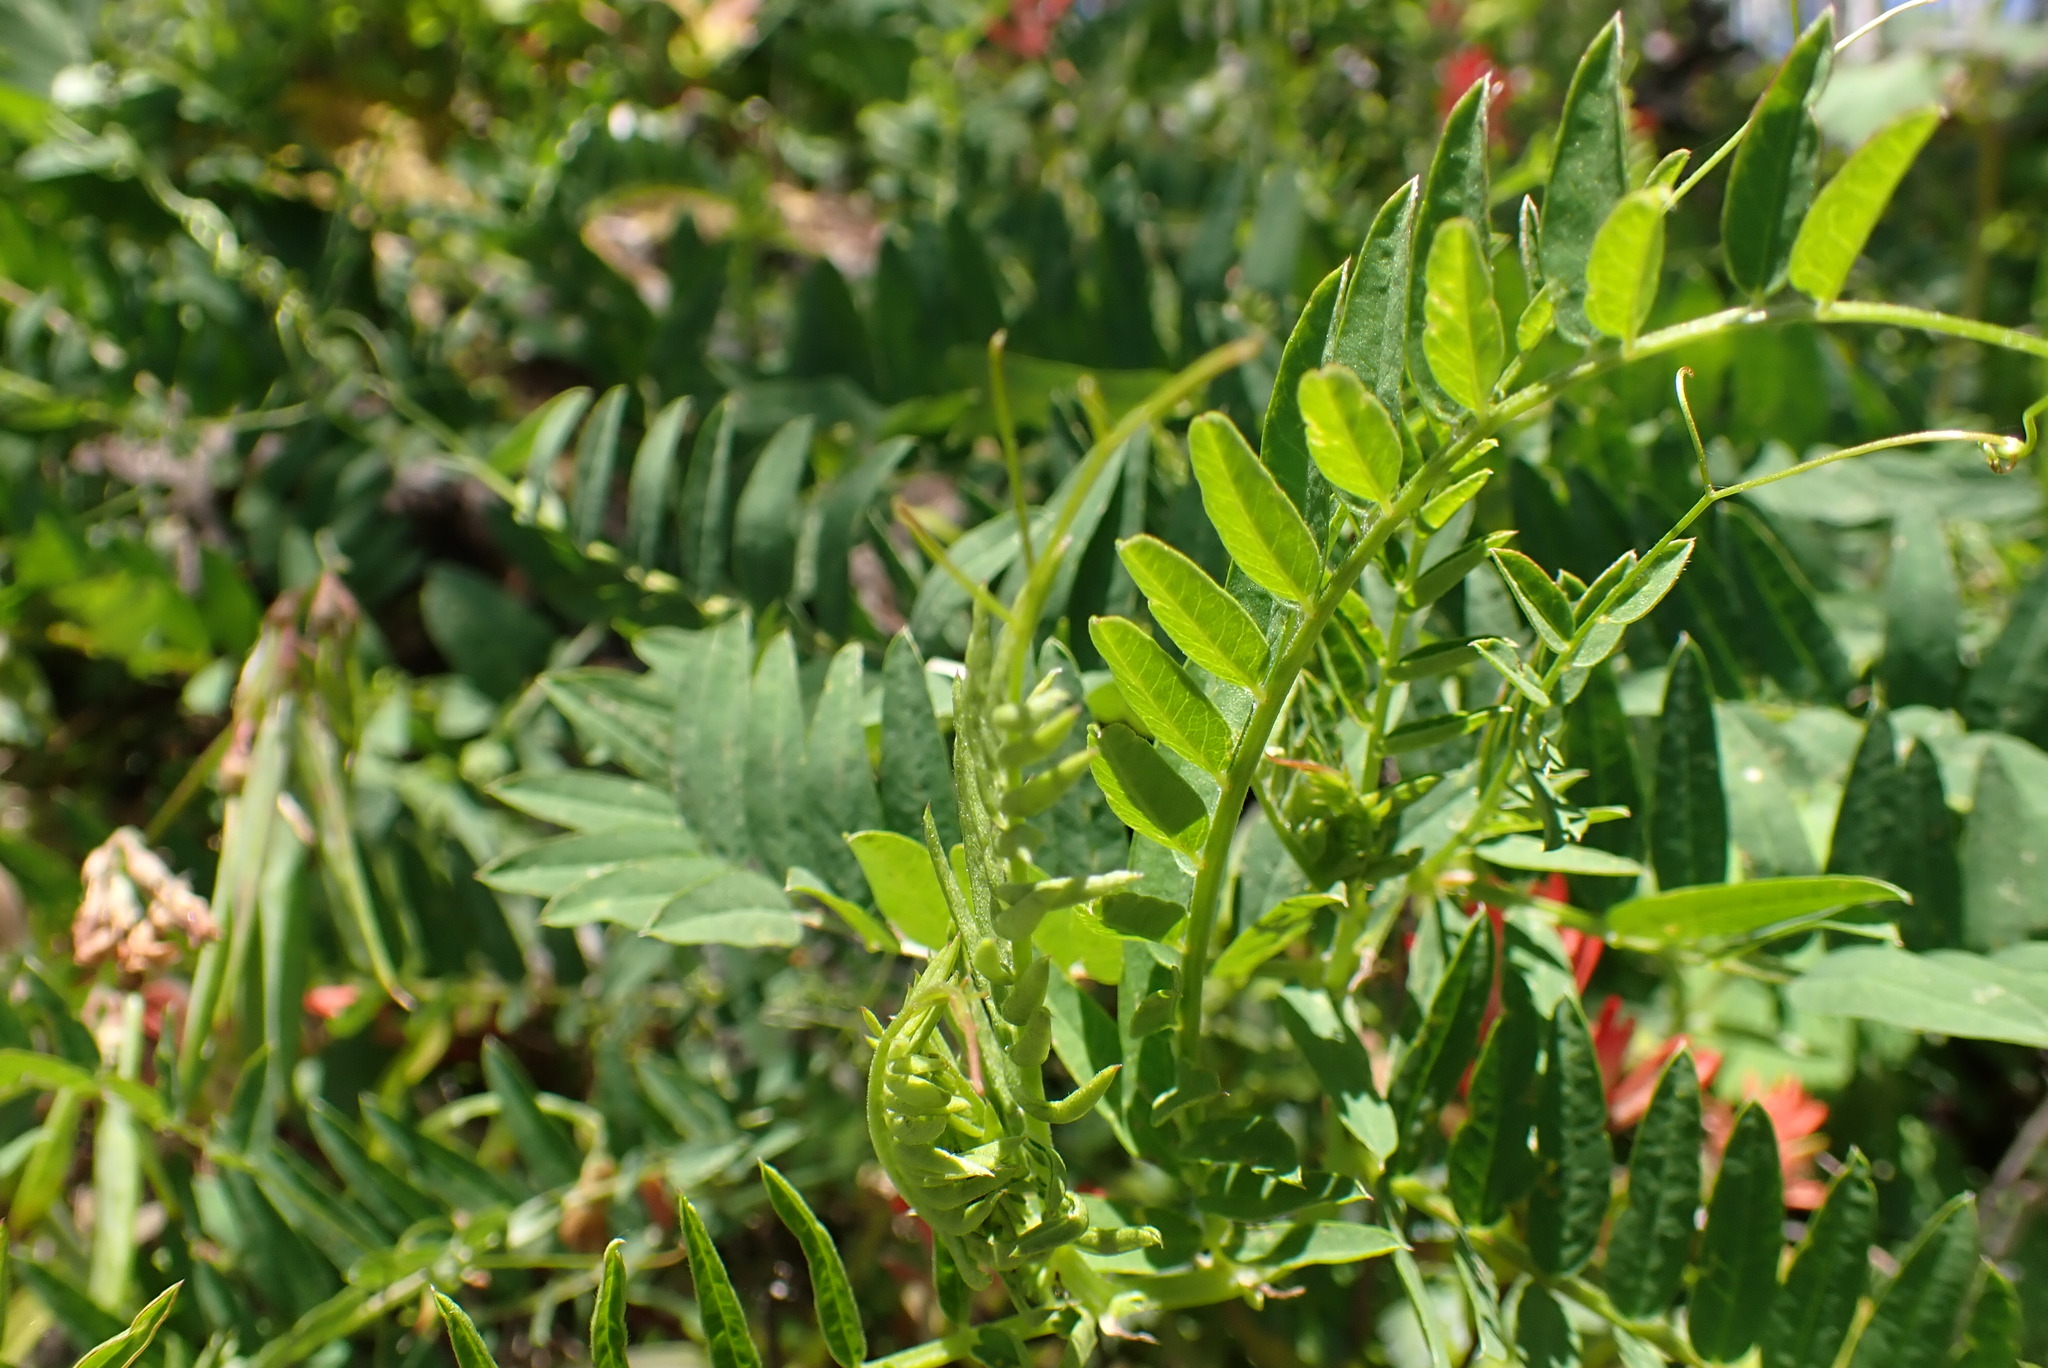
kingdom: Plantae
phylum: Tracheophyta
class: Magnoliopsida
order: Fabales
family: Fabaceae
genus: Vicia
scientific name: Vicia
